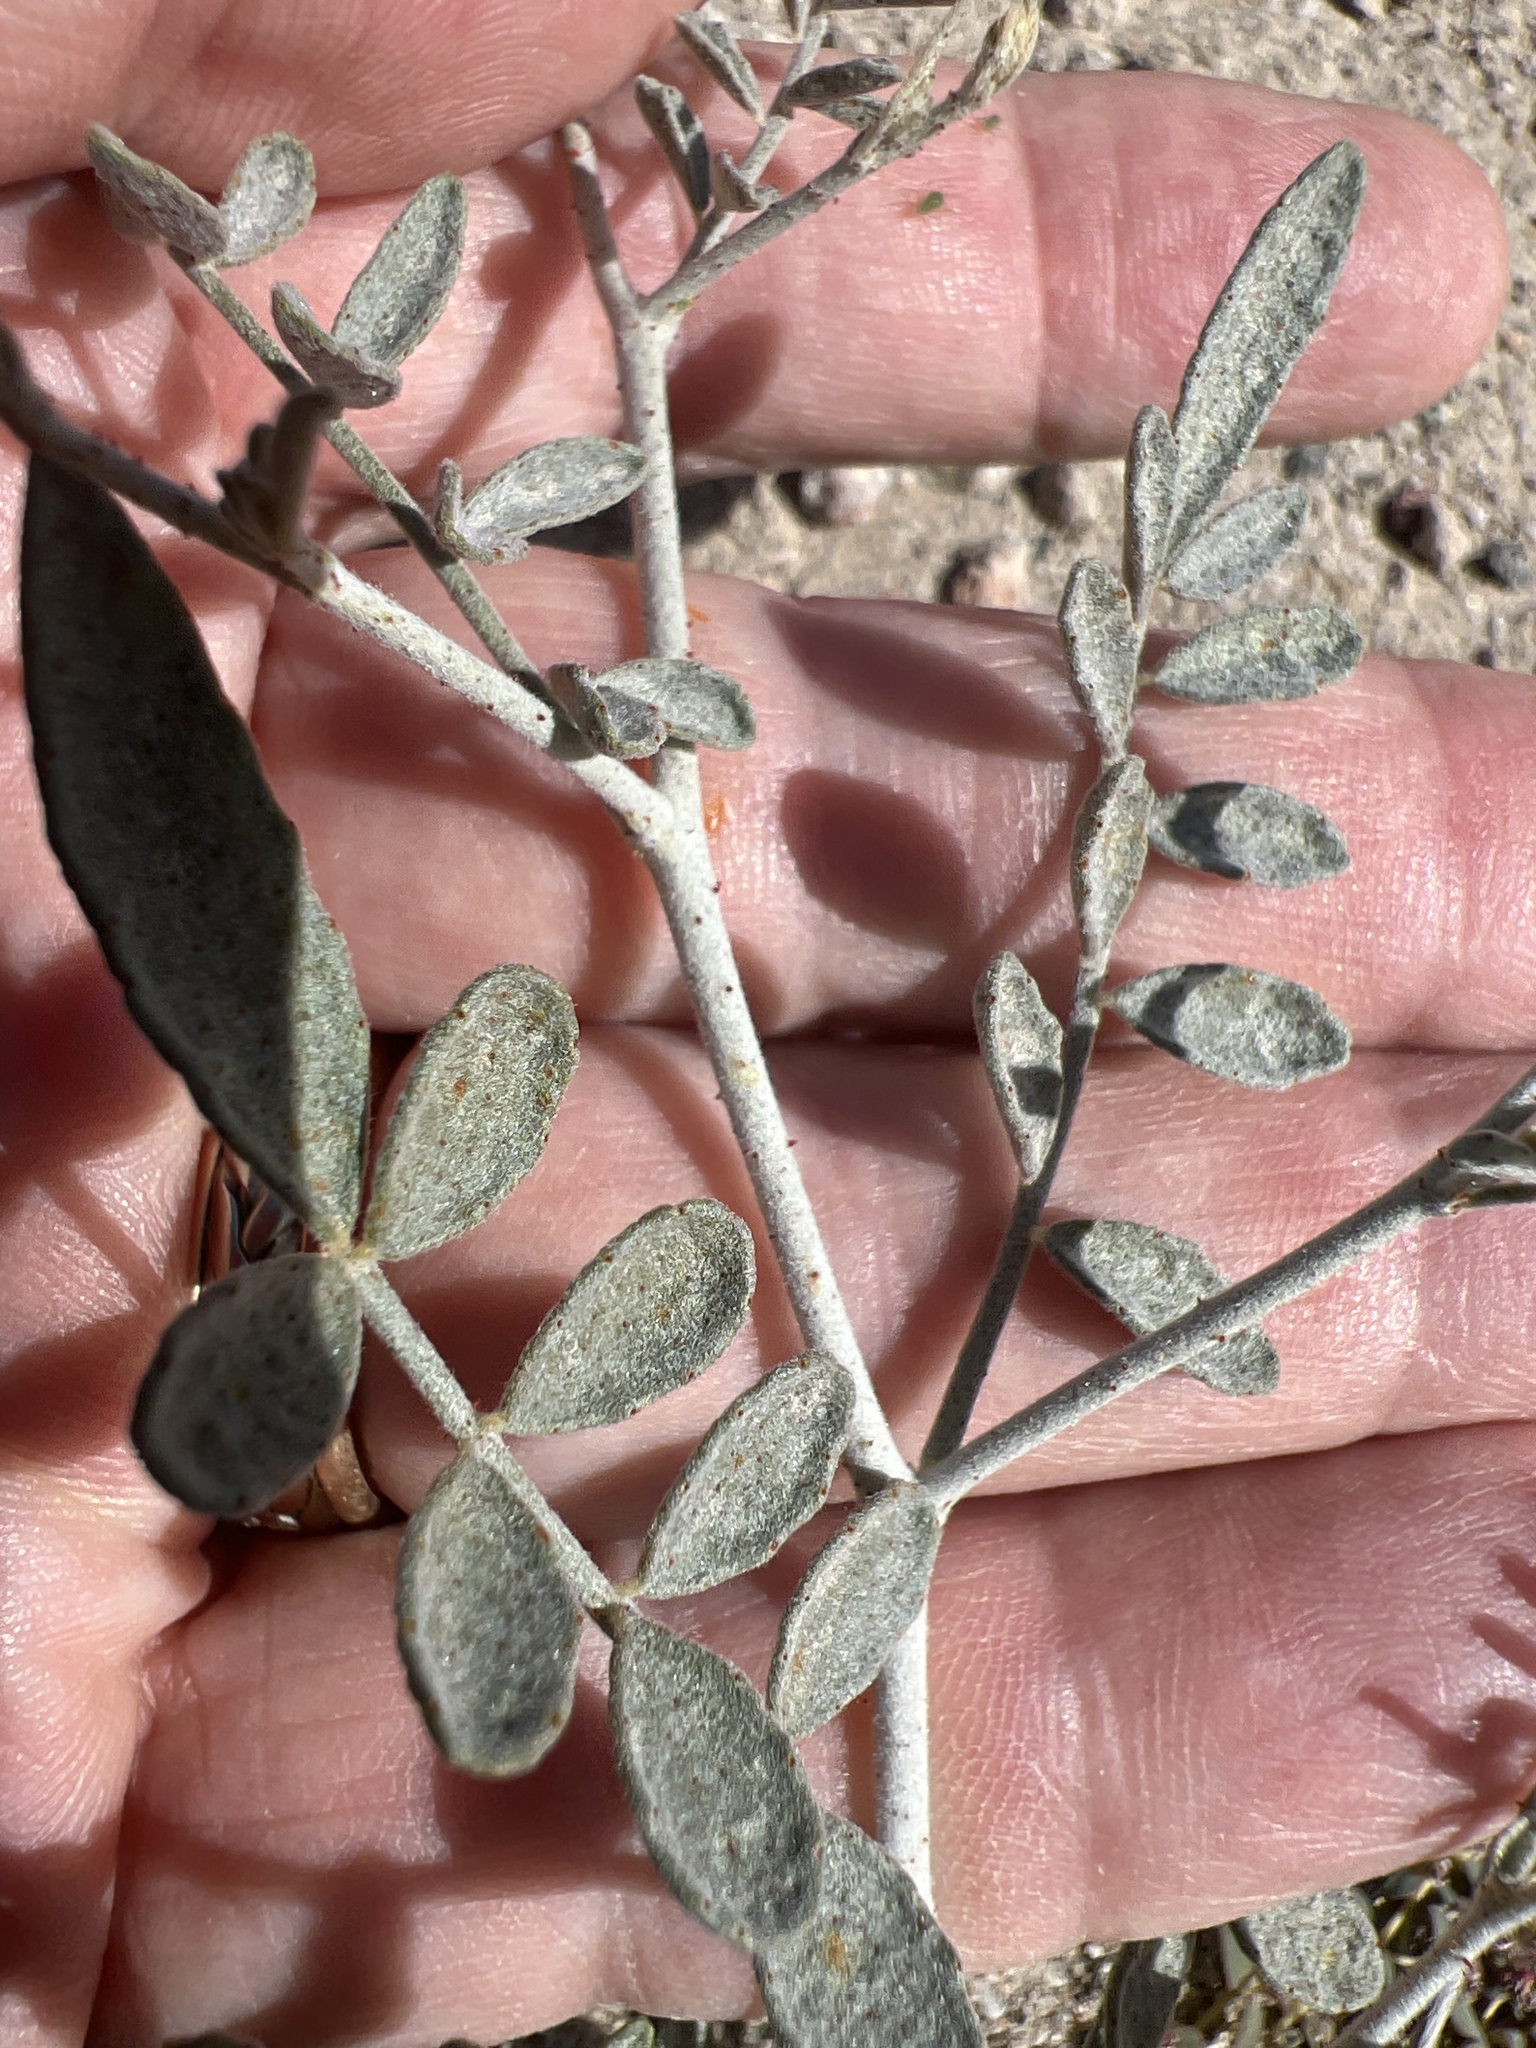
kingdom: Plantae
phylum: Tracheophyta
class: Magnoliopsida
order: Fabales
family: Fabaceae
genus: Psorothamnus
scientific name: Psorothamnus emoryi
